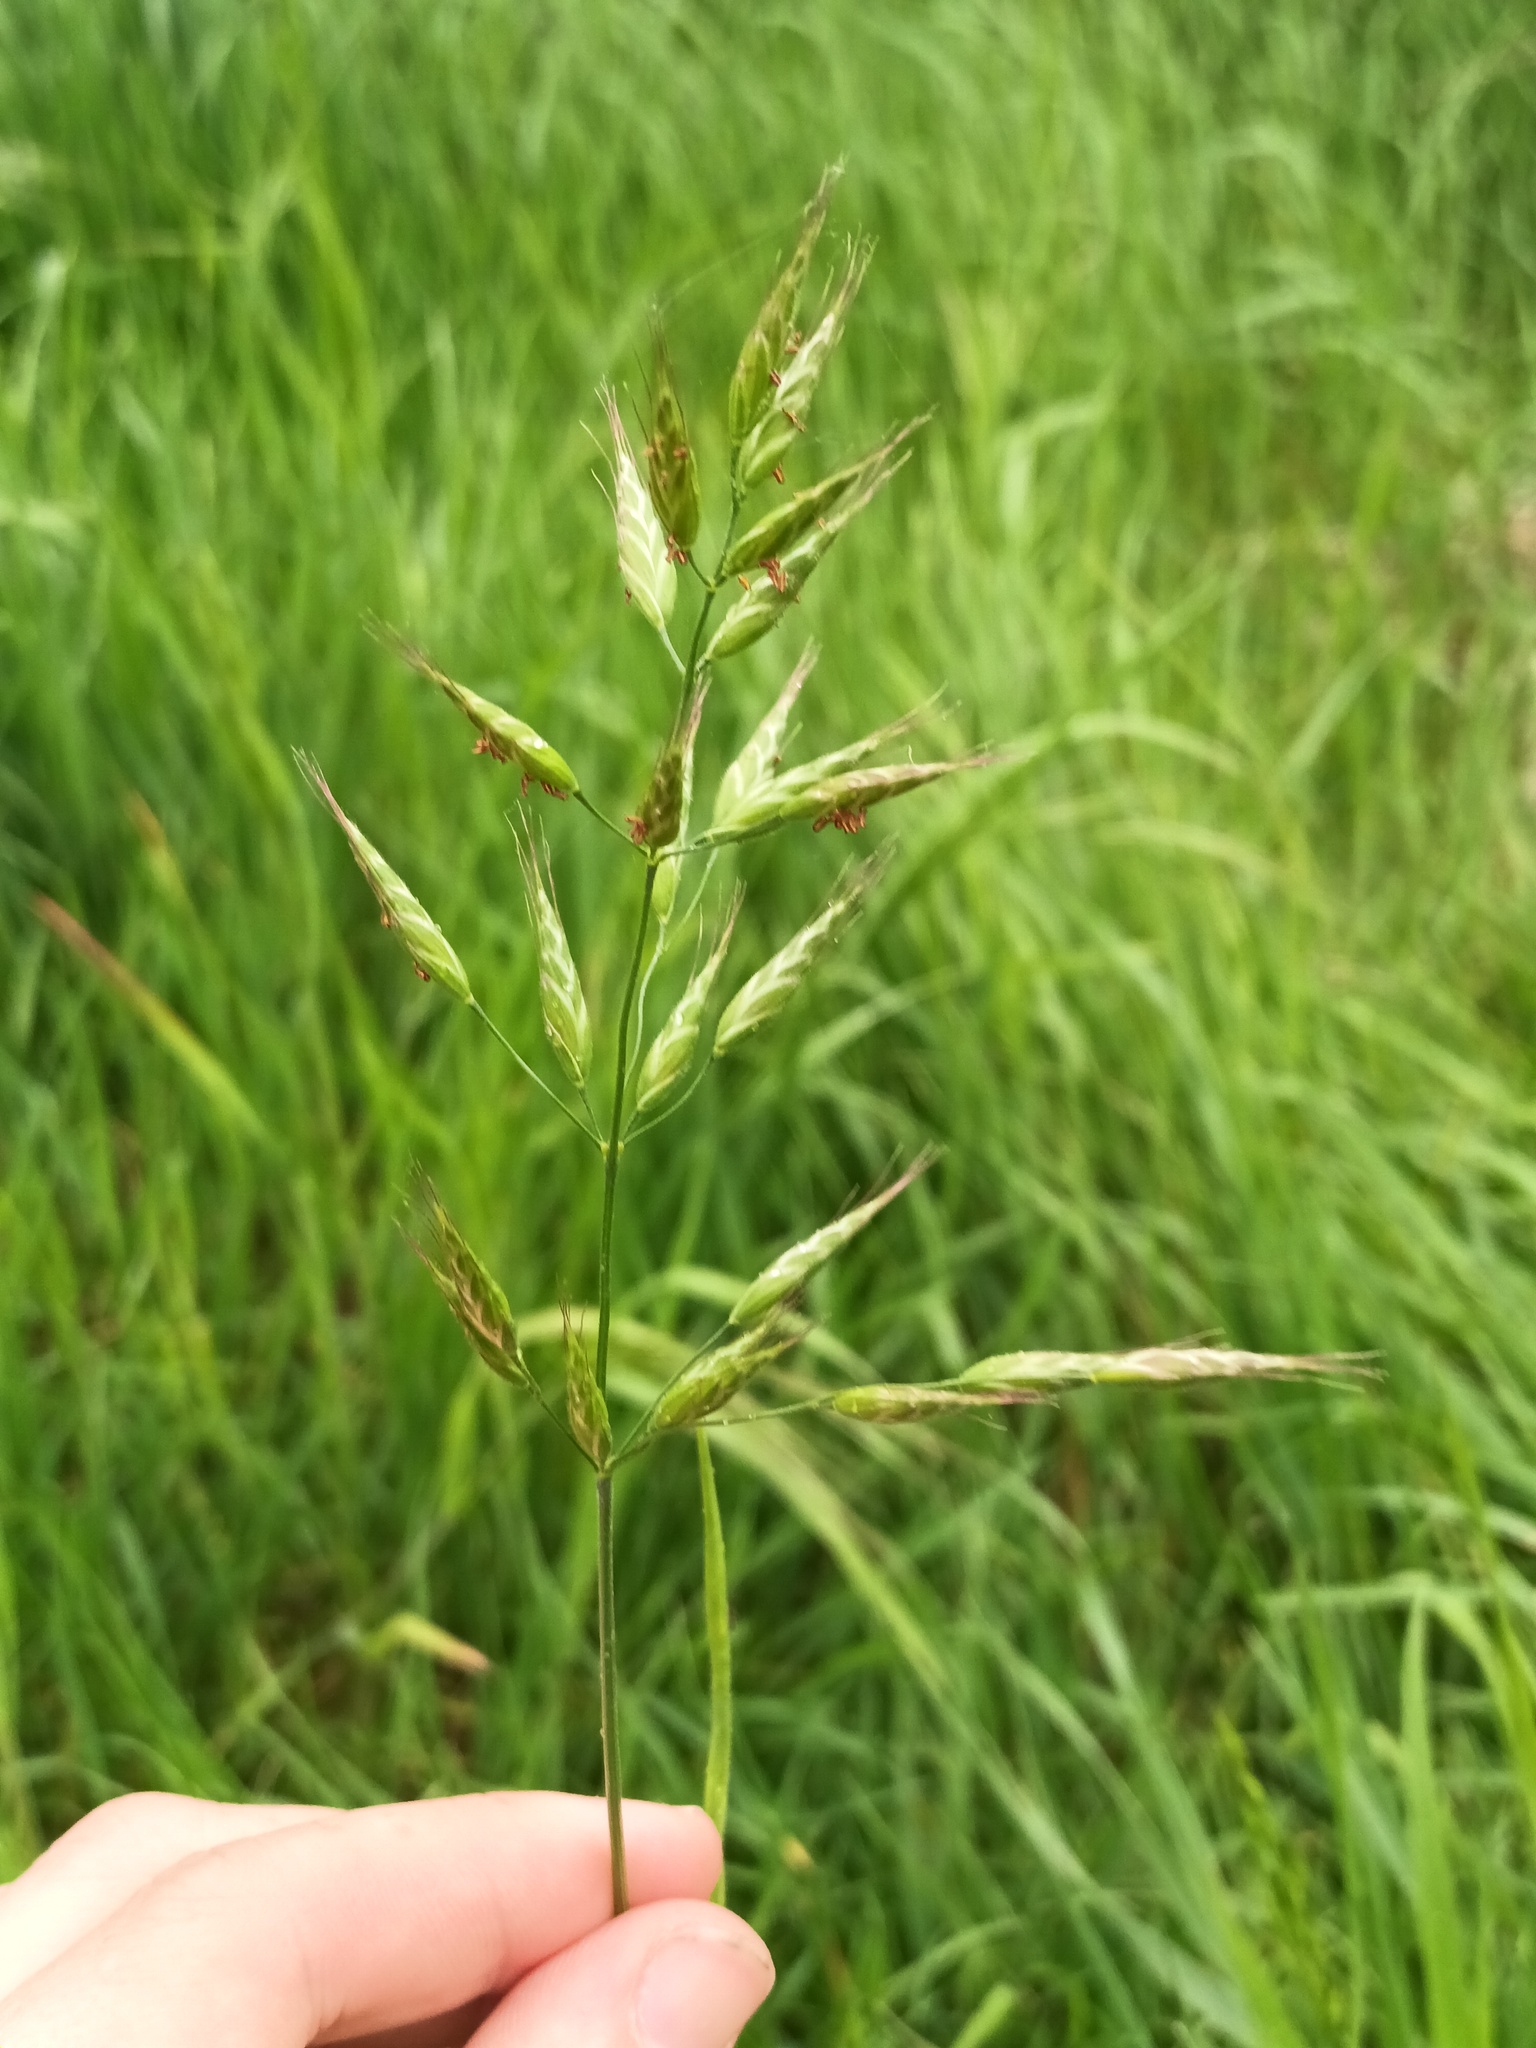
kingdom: Plantae
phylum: Tracheophyta
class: Liliopsida
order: Poales
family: Poaceae
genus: Bromus
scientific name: Bromus hordeaceus
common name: Soft brome
